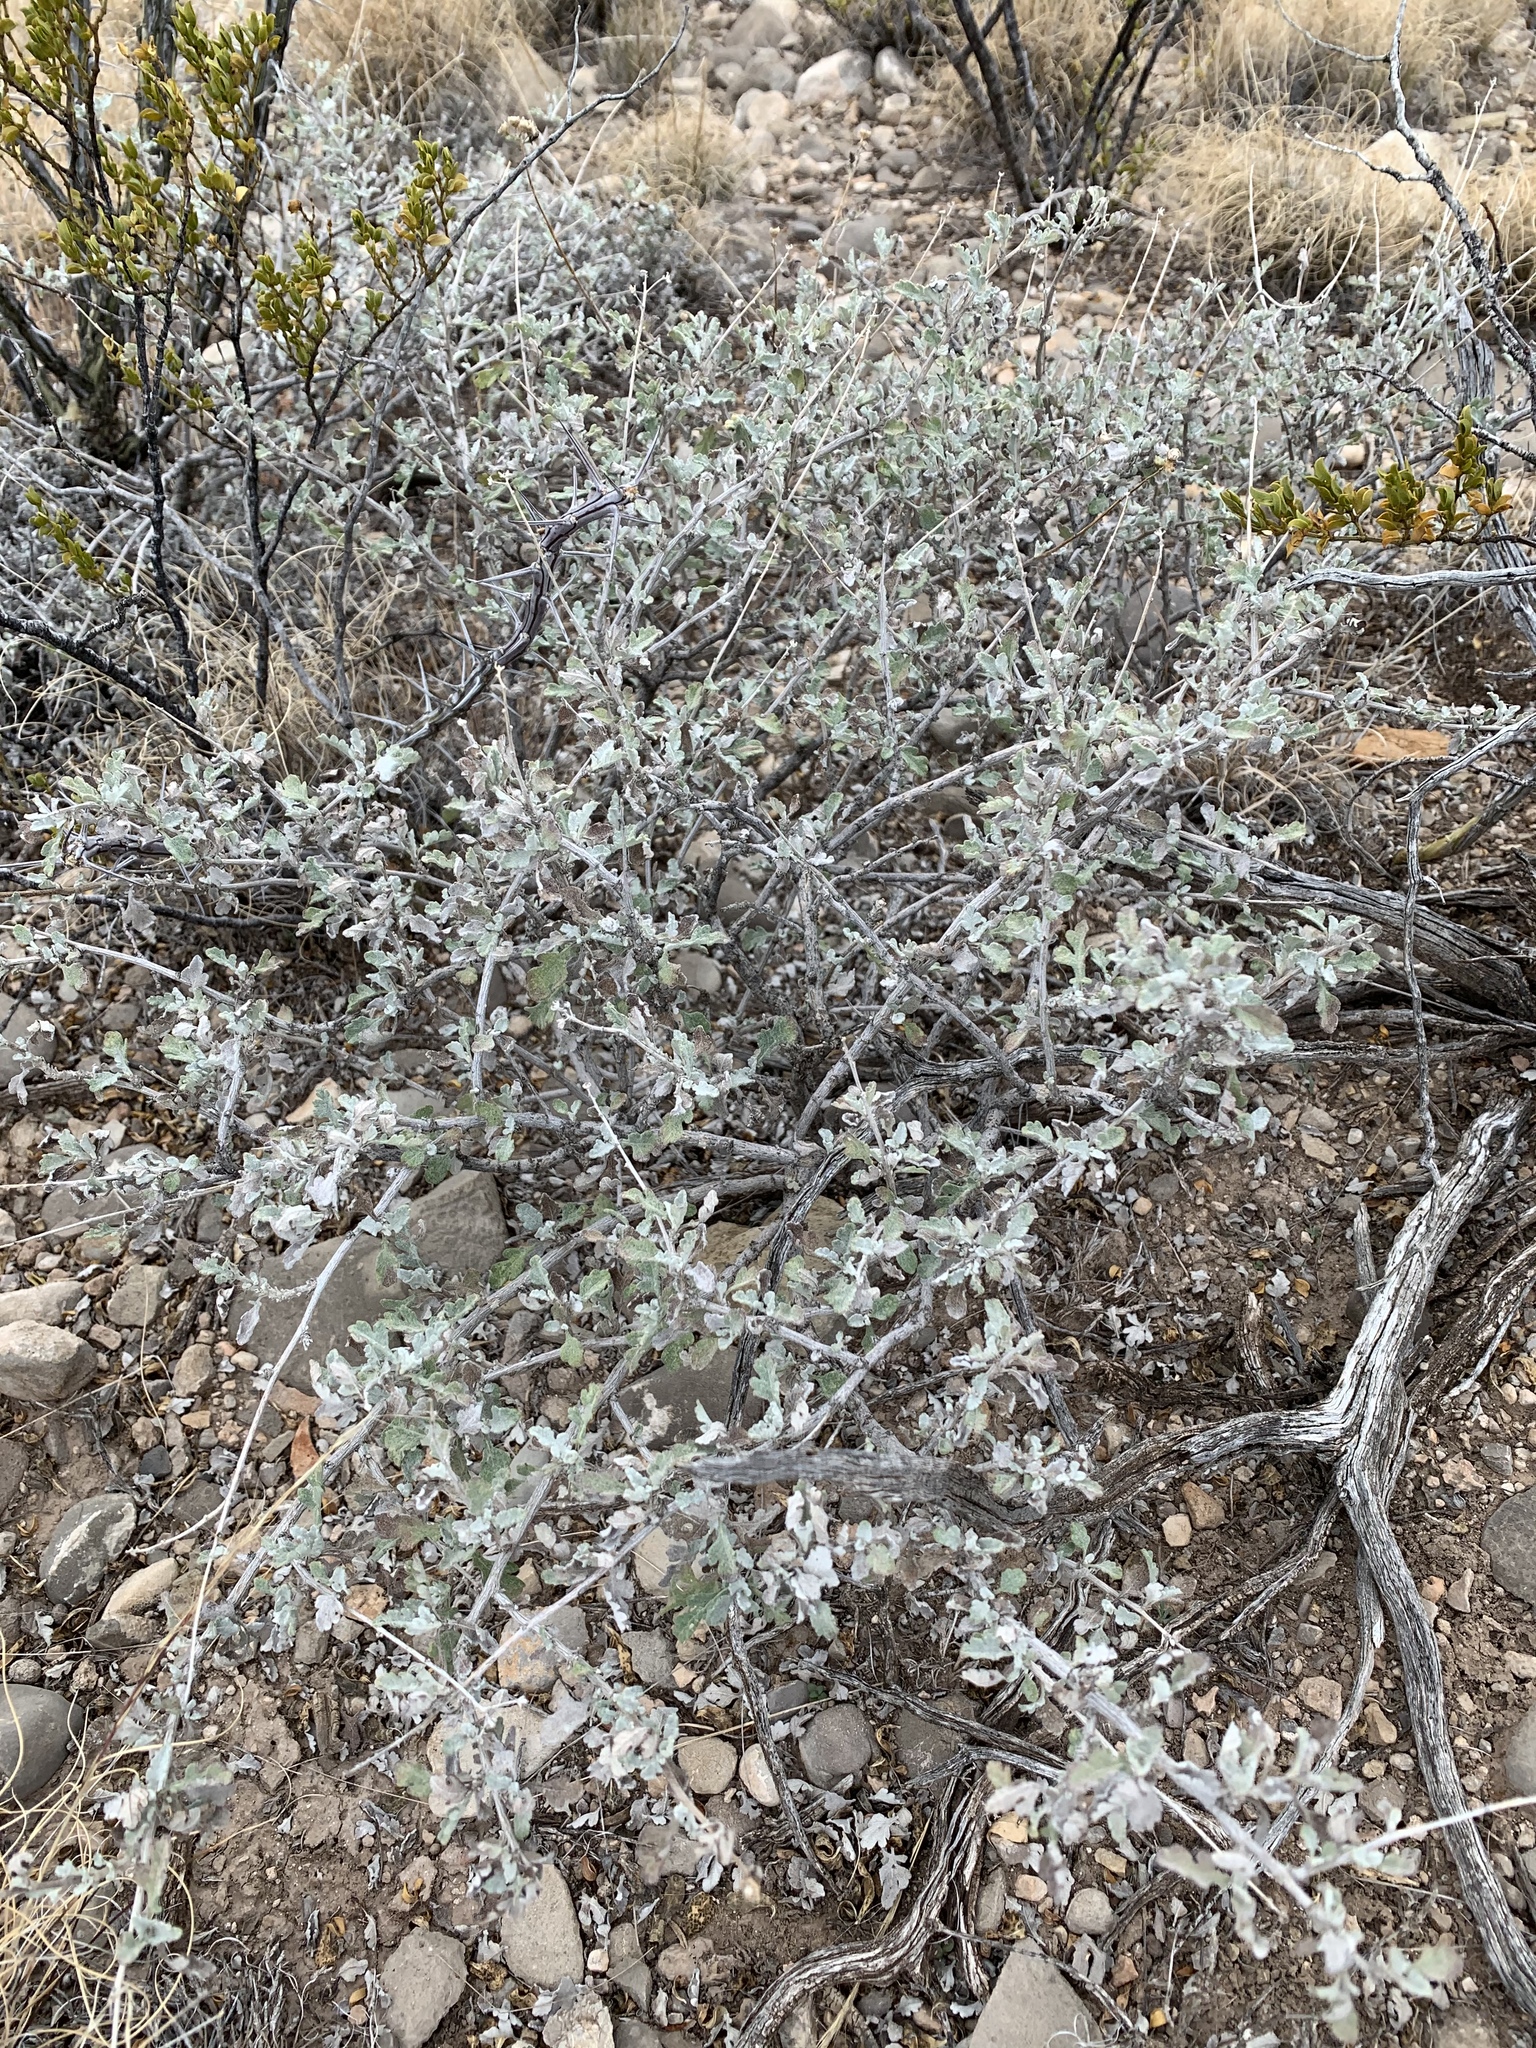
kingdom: Plantae
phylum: Tracheophyta
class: Magnoliopsida
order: Asterales
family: Asteraceae
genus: Parthenium
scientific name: Parthenium incanum
